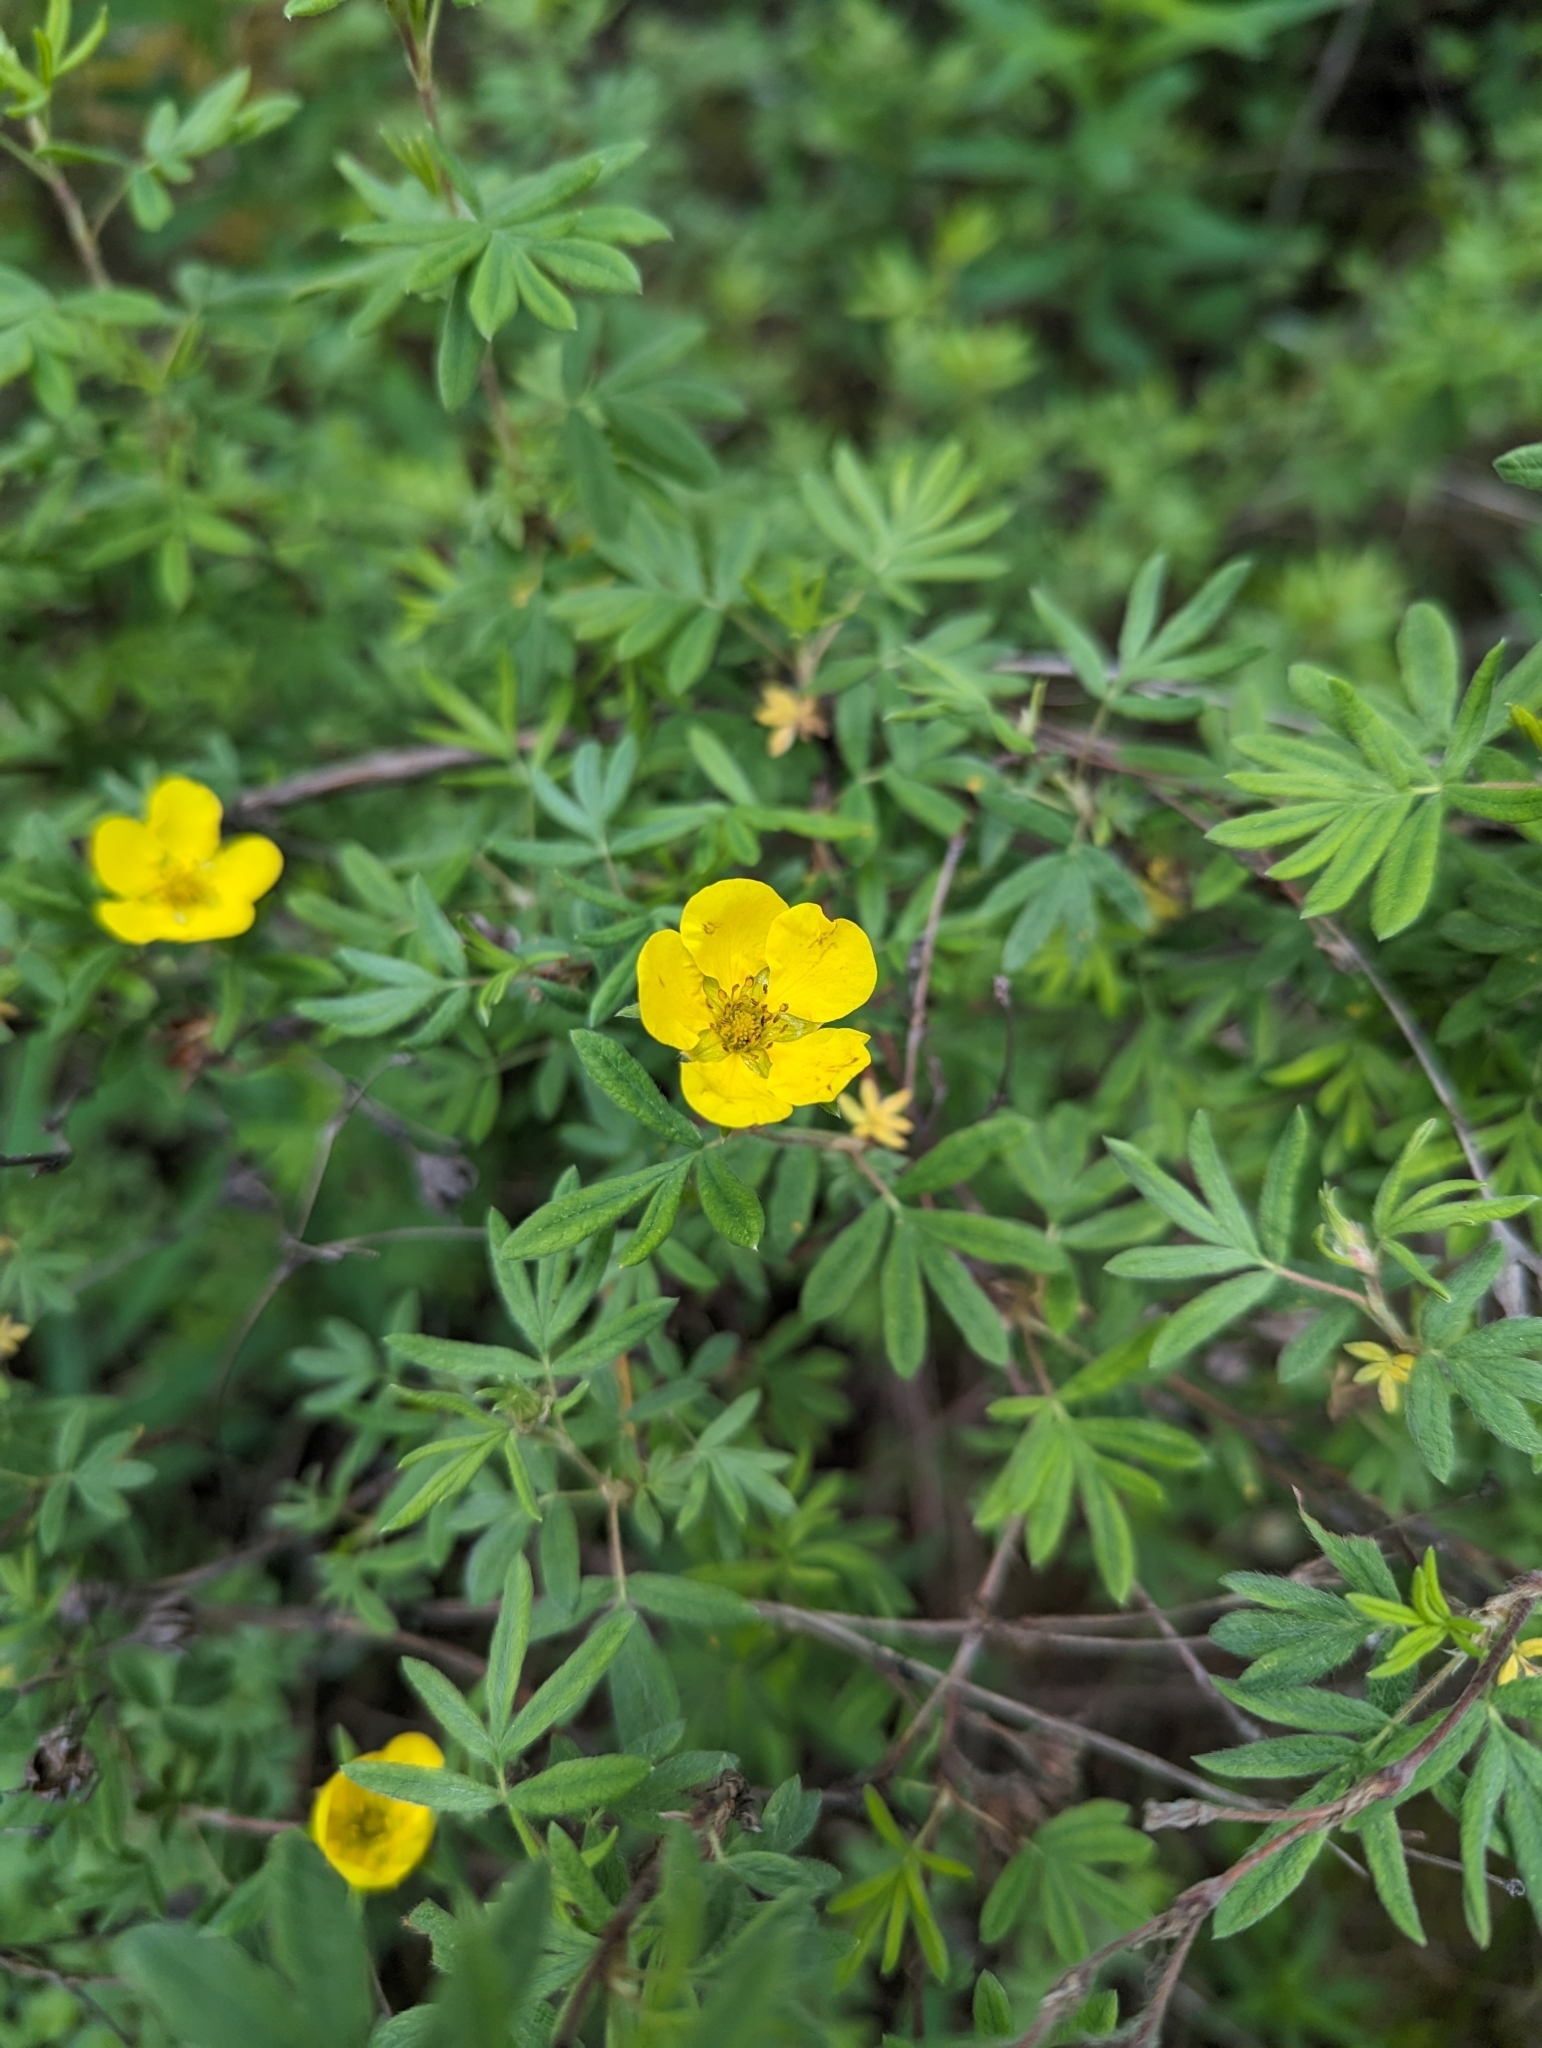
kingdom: Plantae
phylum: Tracheophyta
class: Magnoliopsida
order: Rosales
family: Rosaceae
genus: Dasiphora
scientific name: Dasiphora fruticosa
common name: Shrubby cinquefoil
